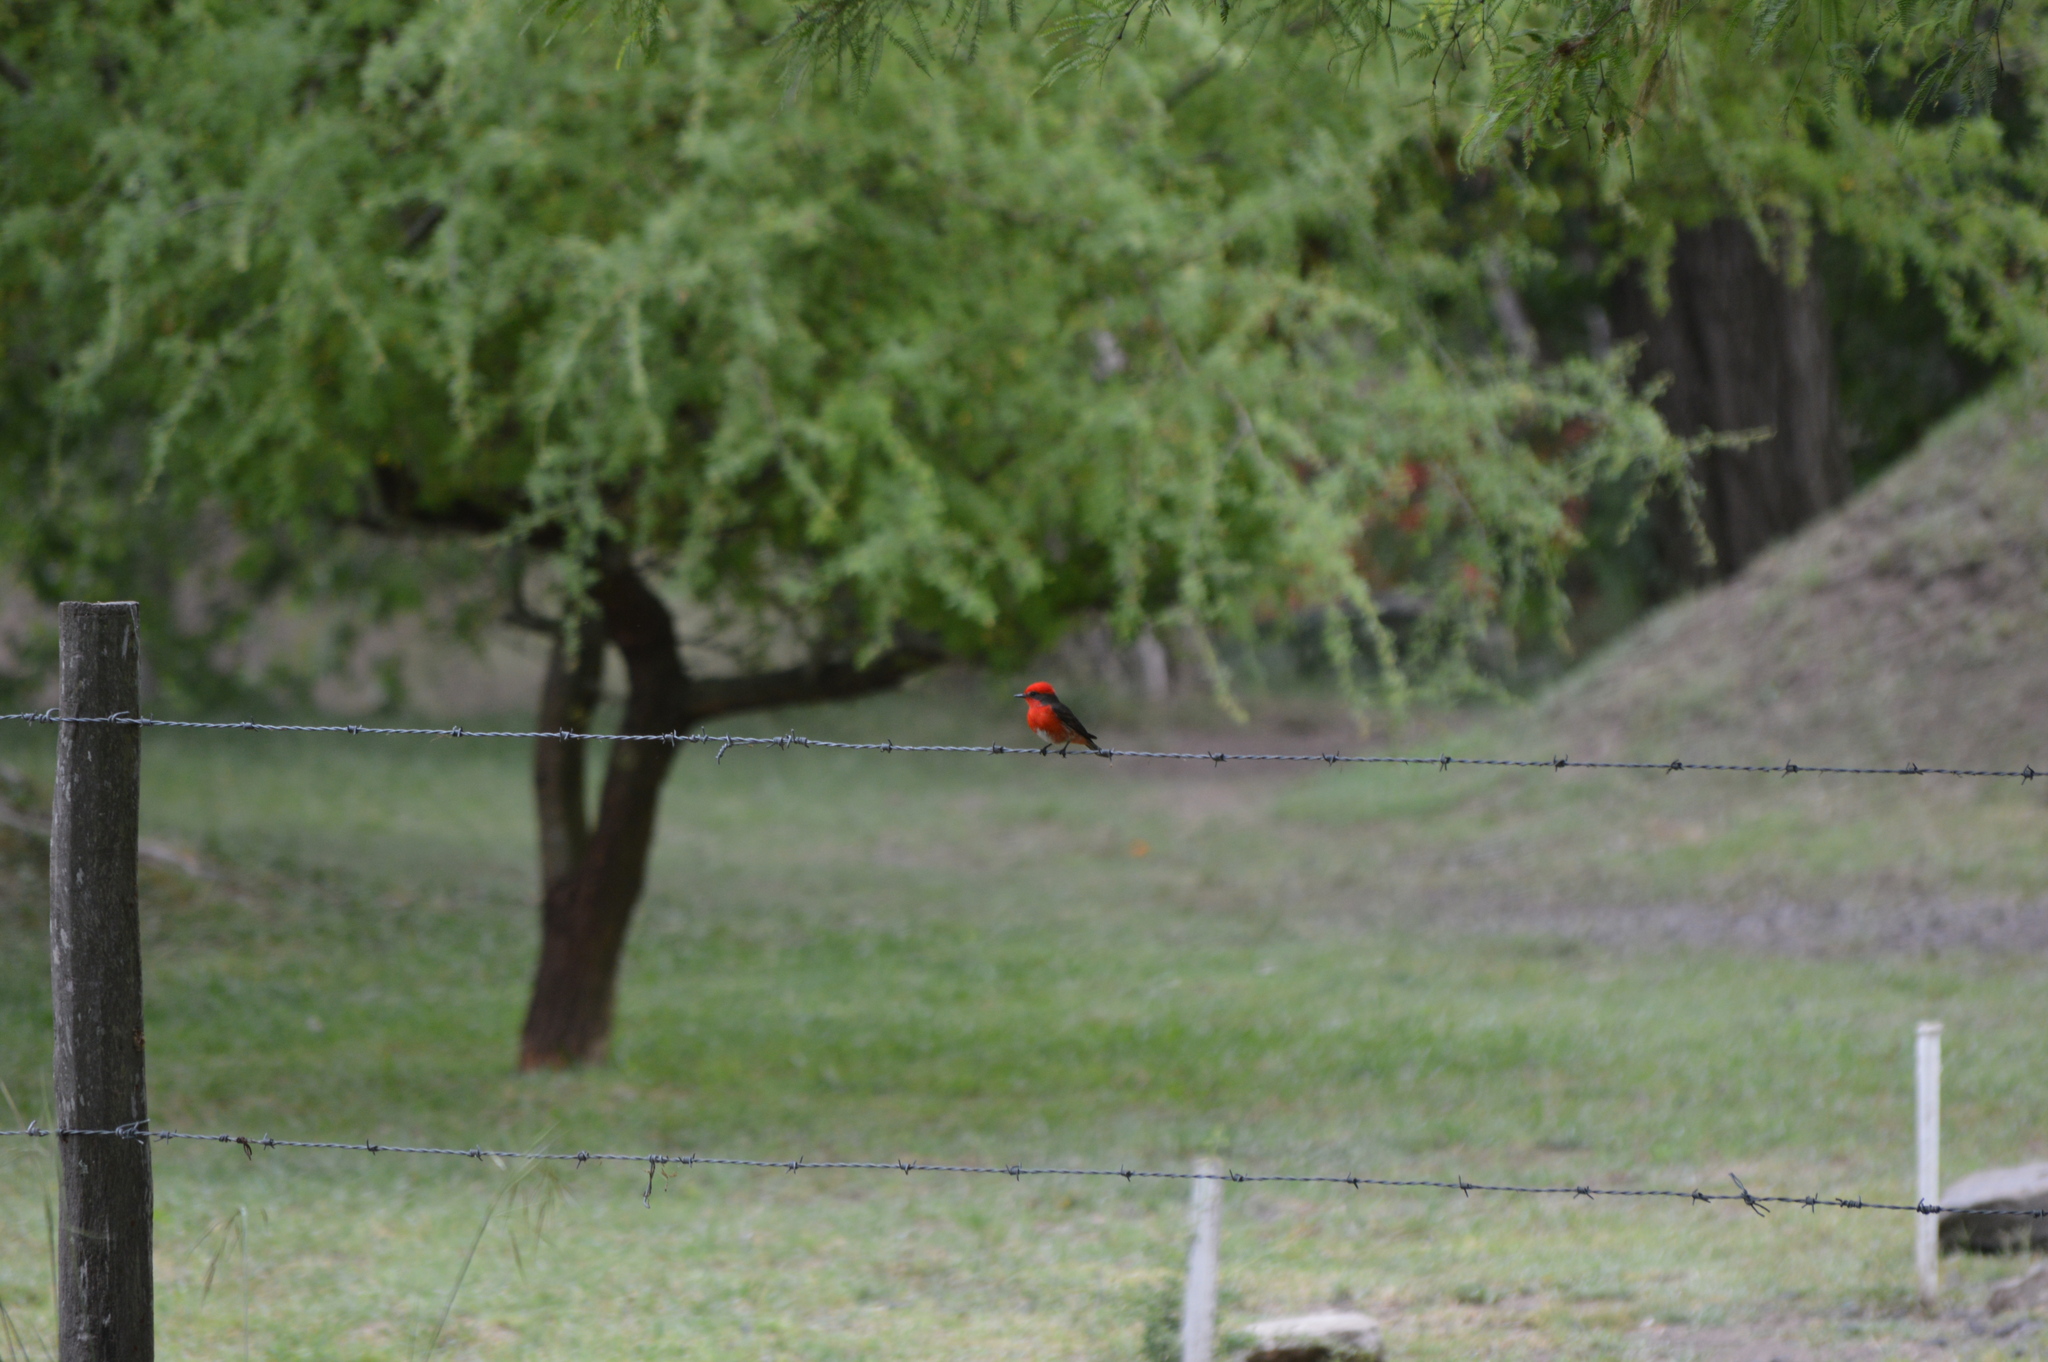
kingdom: Animalia
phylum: Chordata
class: Aves
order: Passeriformes
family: Tyrannidae
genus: Pyrocephalus
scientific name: Pyrocephalus rubinus
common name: Vermilion flycatcher
